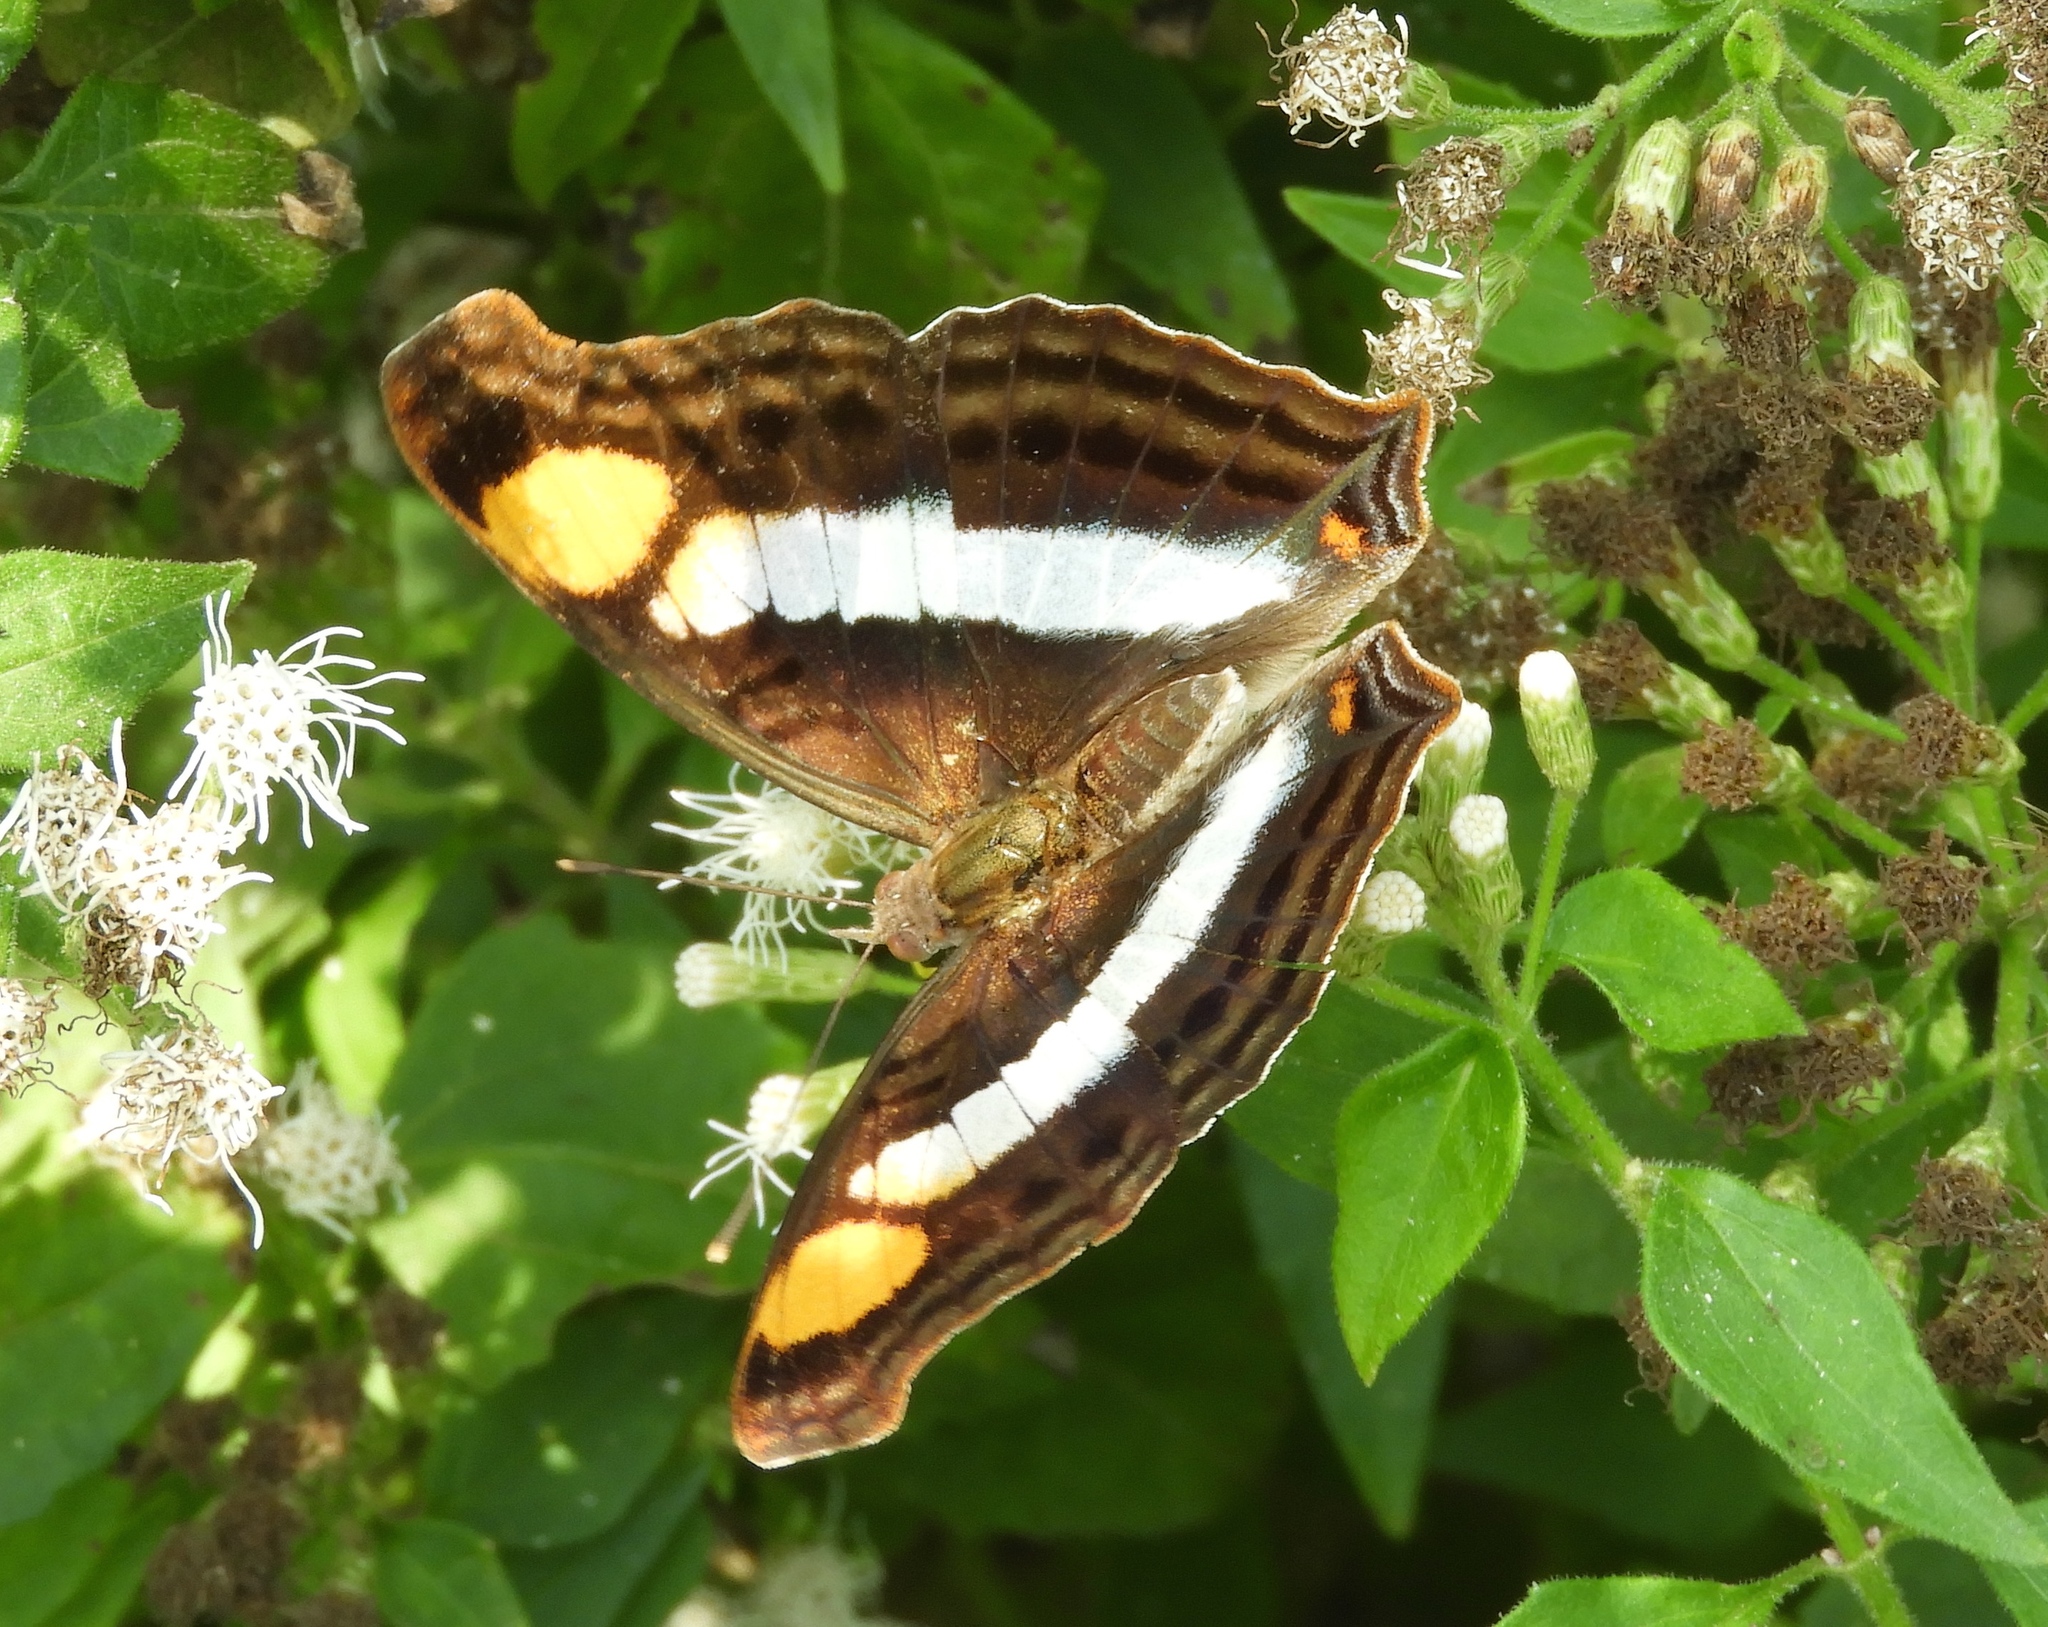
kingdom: Animalia
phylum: Arthropoda
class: Insecta
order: Lepidoptera
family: Nymphalidae
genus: Doxocopa
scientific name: Doxocopa laure
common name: Silver emperor
